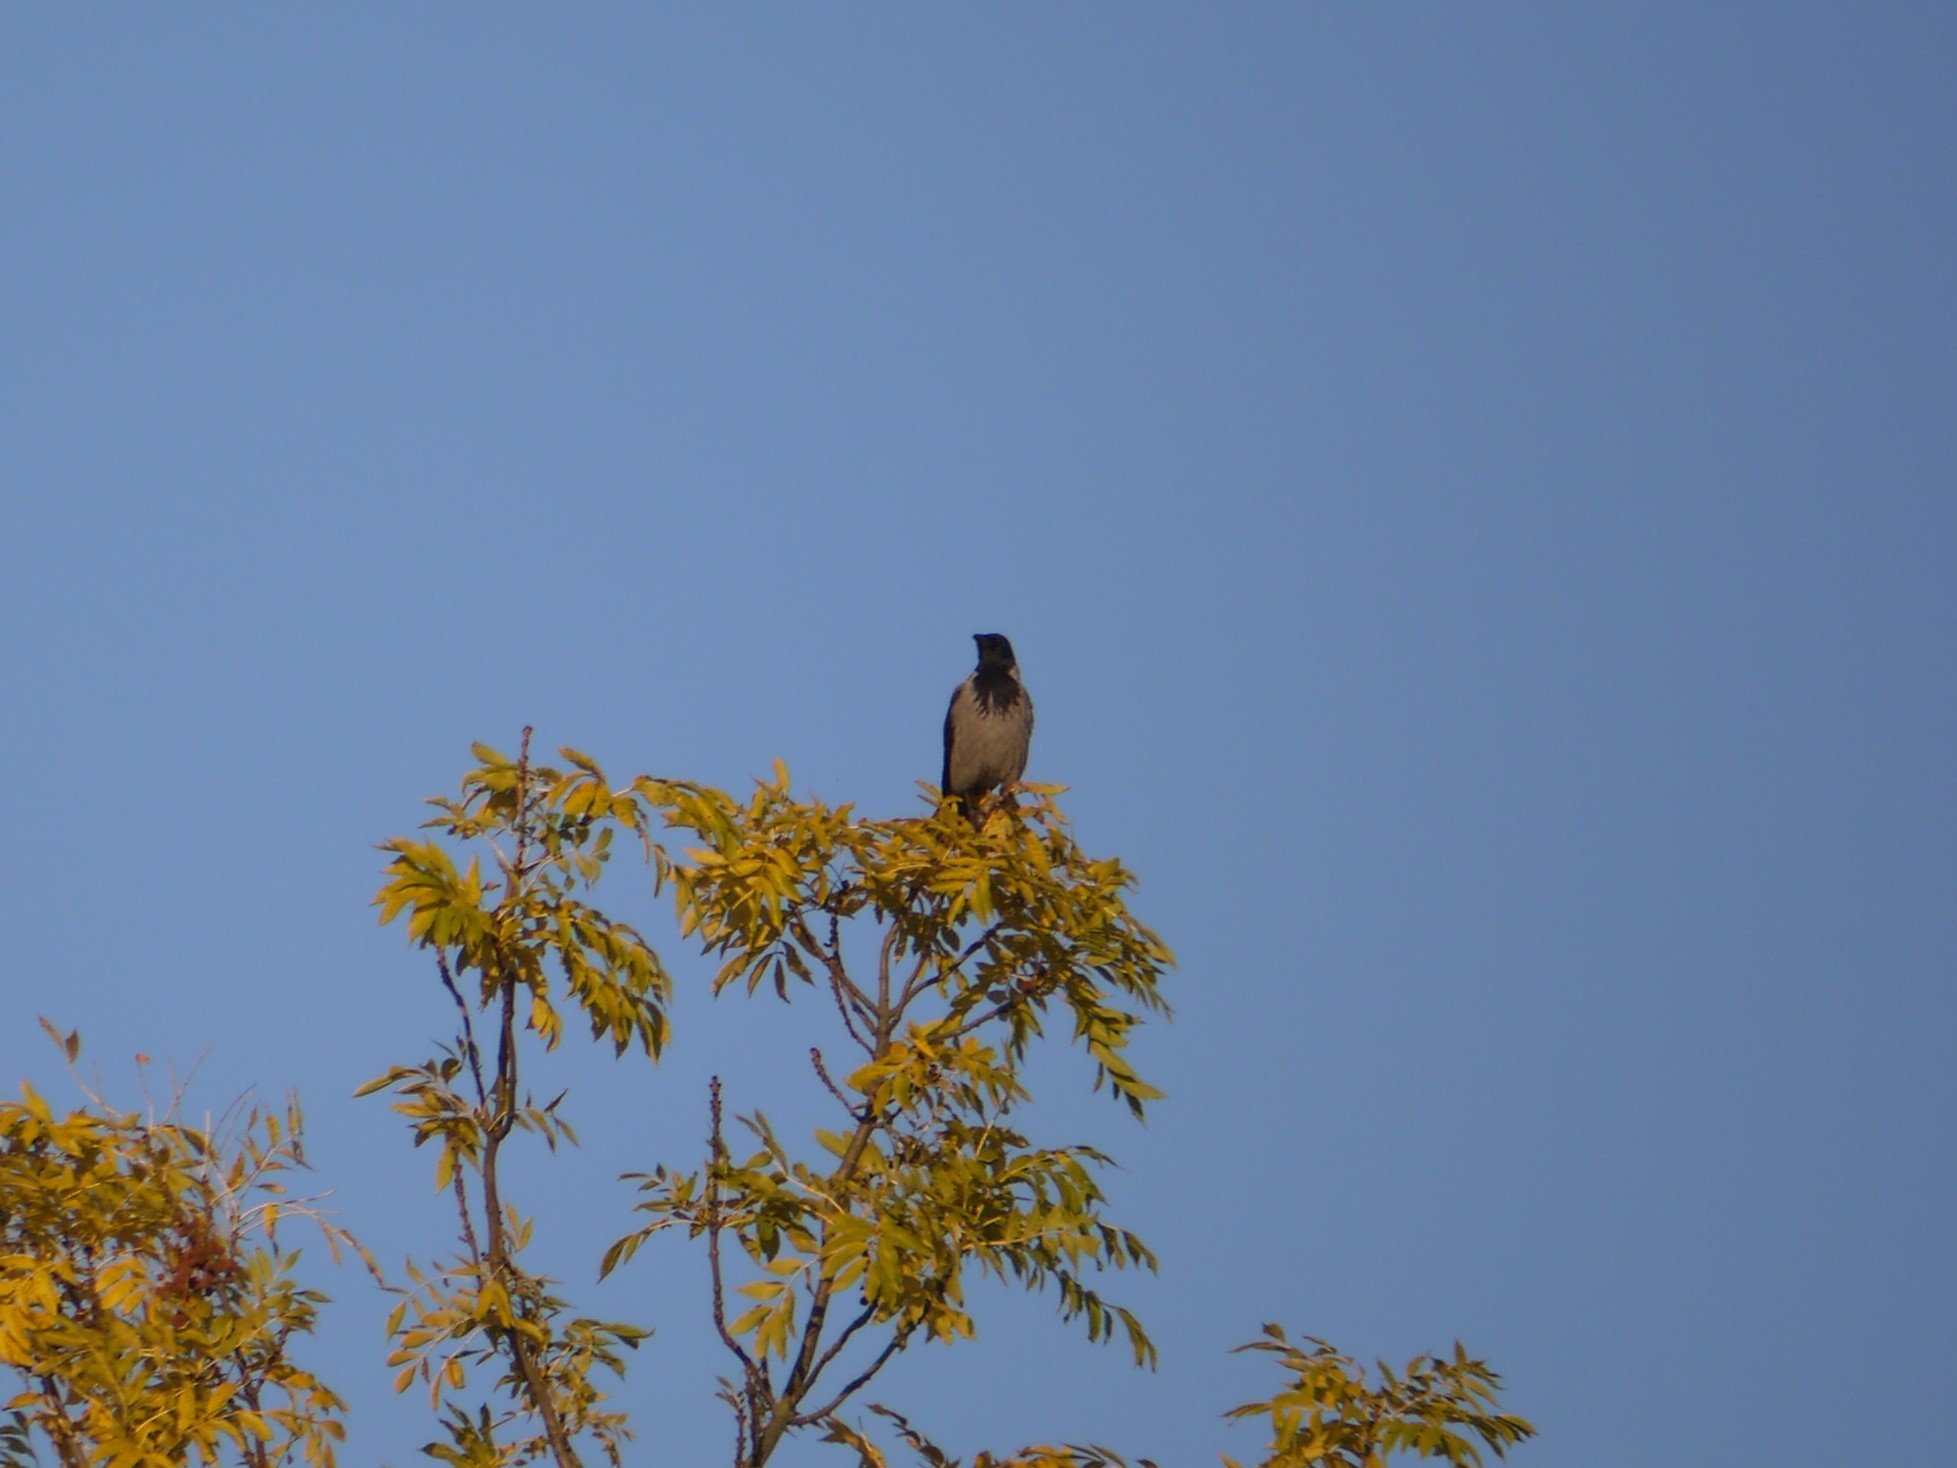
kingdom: Animalia
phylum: Chordata
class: Aves
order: Passeriformes
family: Corvidae
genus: Corvus
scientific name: Corvus cornix
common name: Hooded crow
